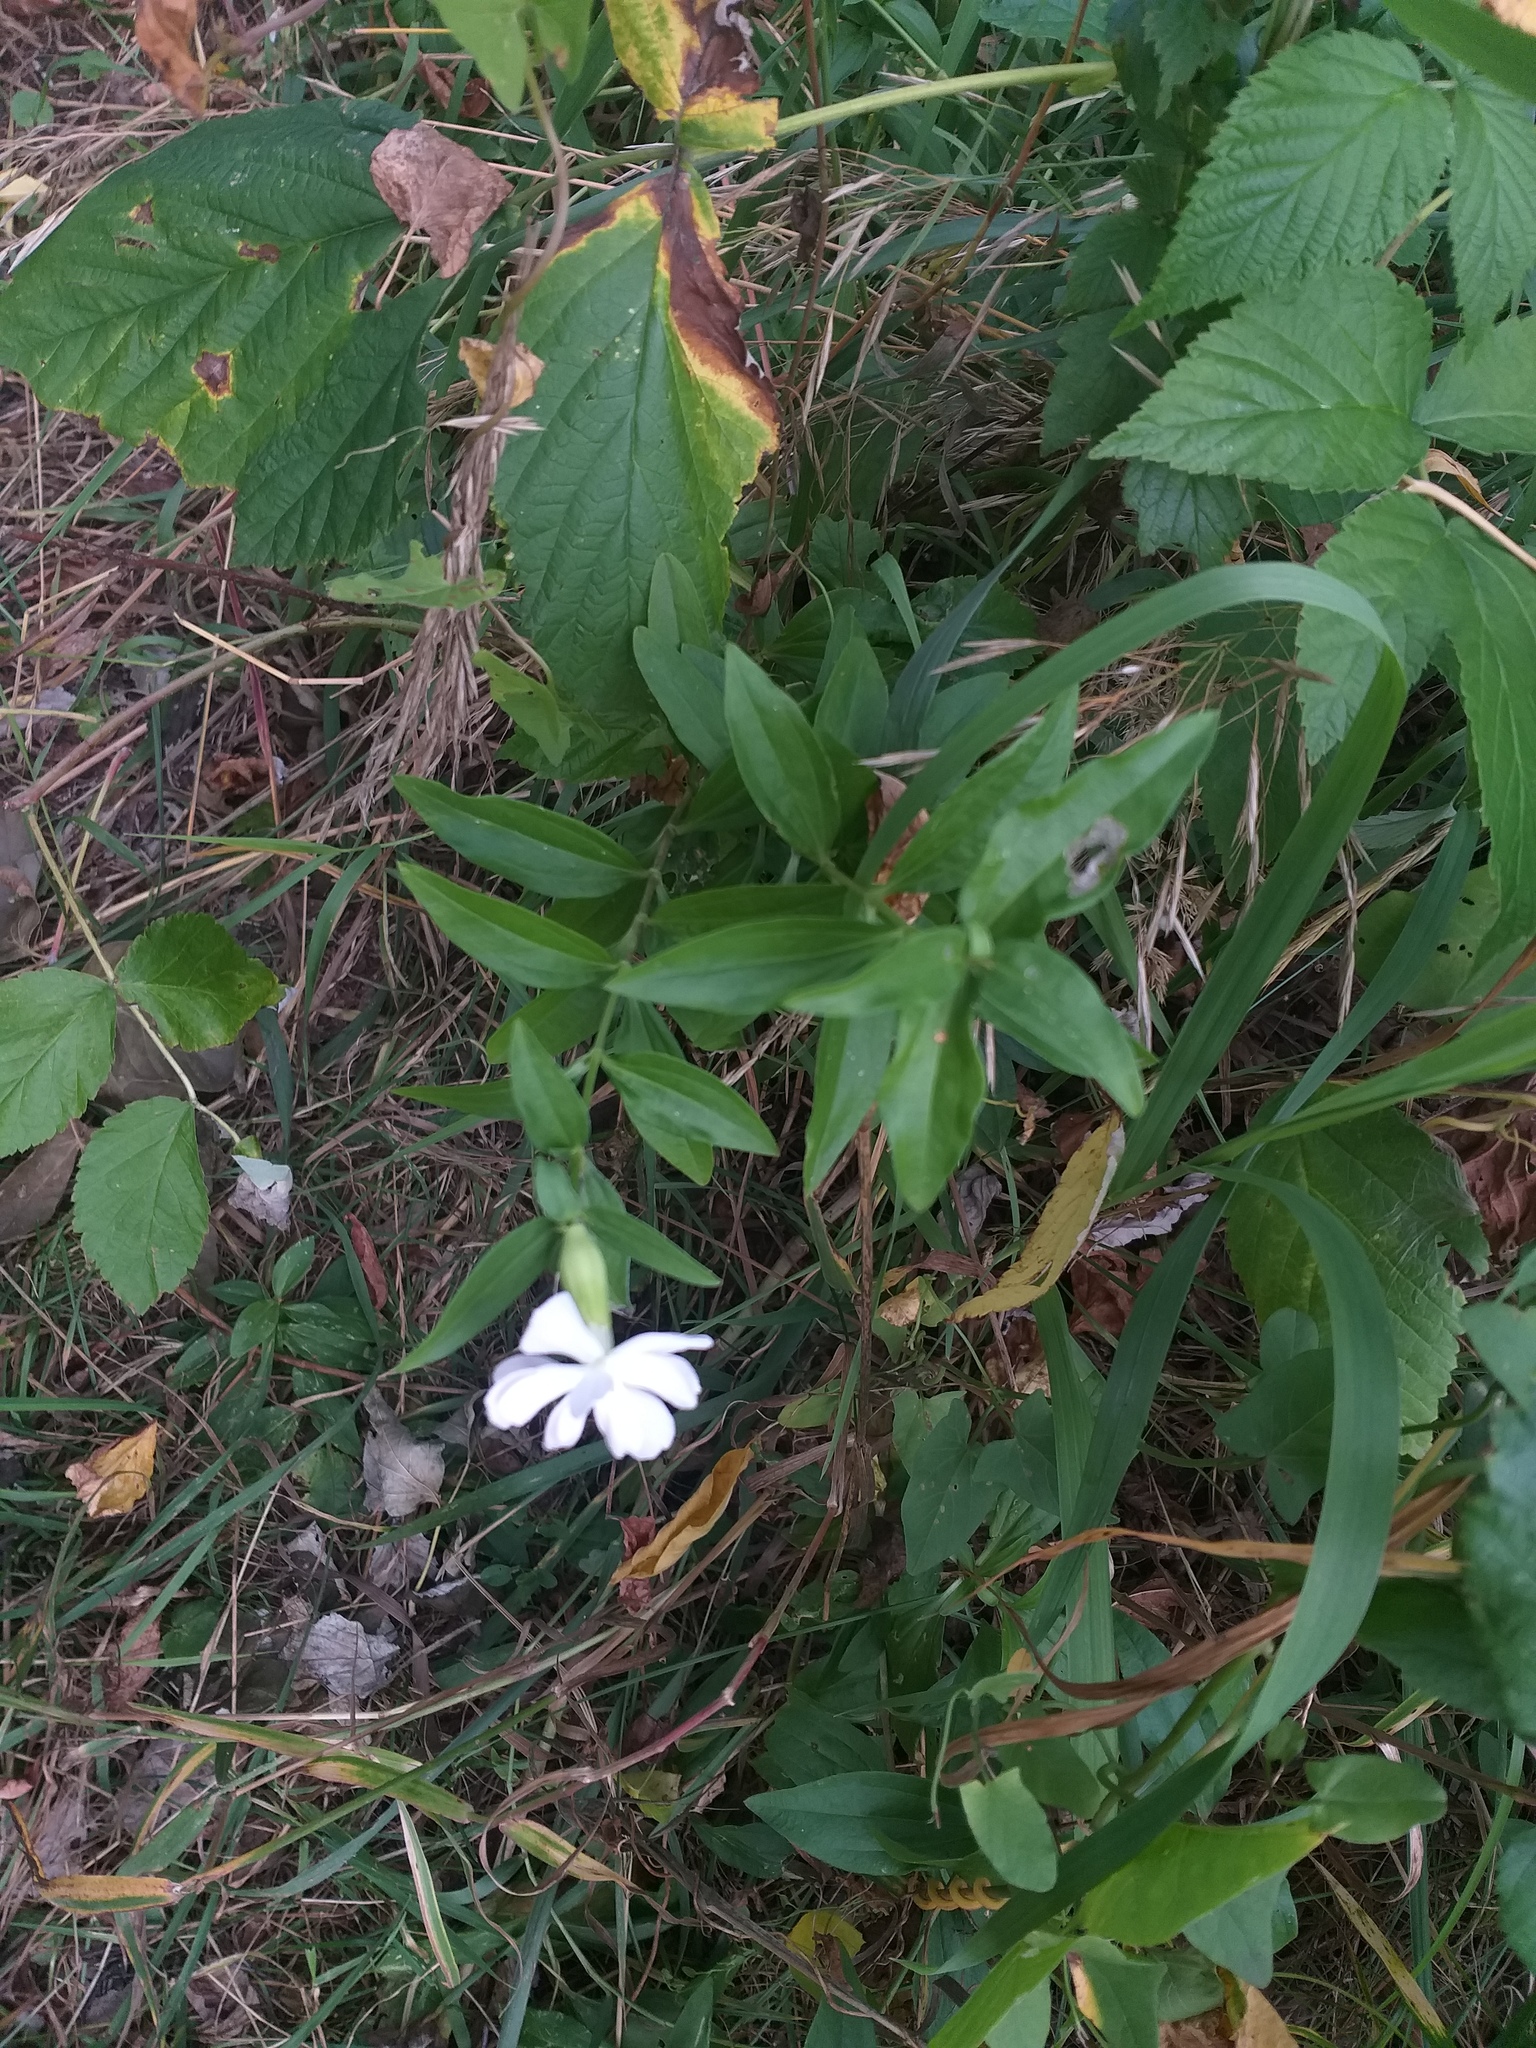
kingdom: Plantae
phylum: Tracheophyta
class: Magnoliopsida
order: Caryophyllales
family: Caryophyllaceae
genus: Saponaria
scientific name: Saponaria officinalis
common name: Soapwort
